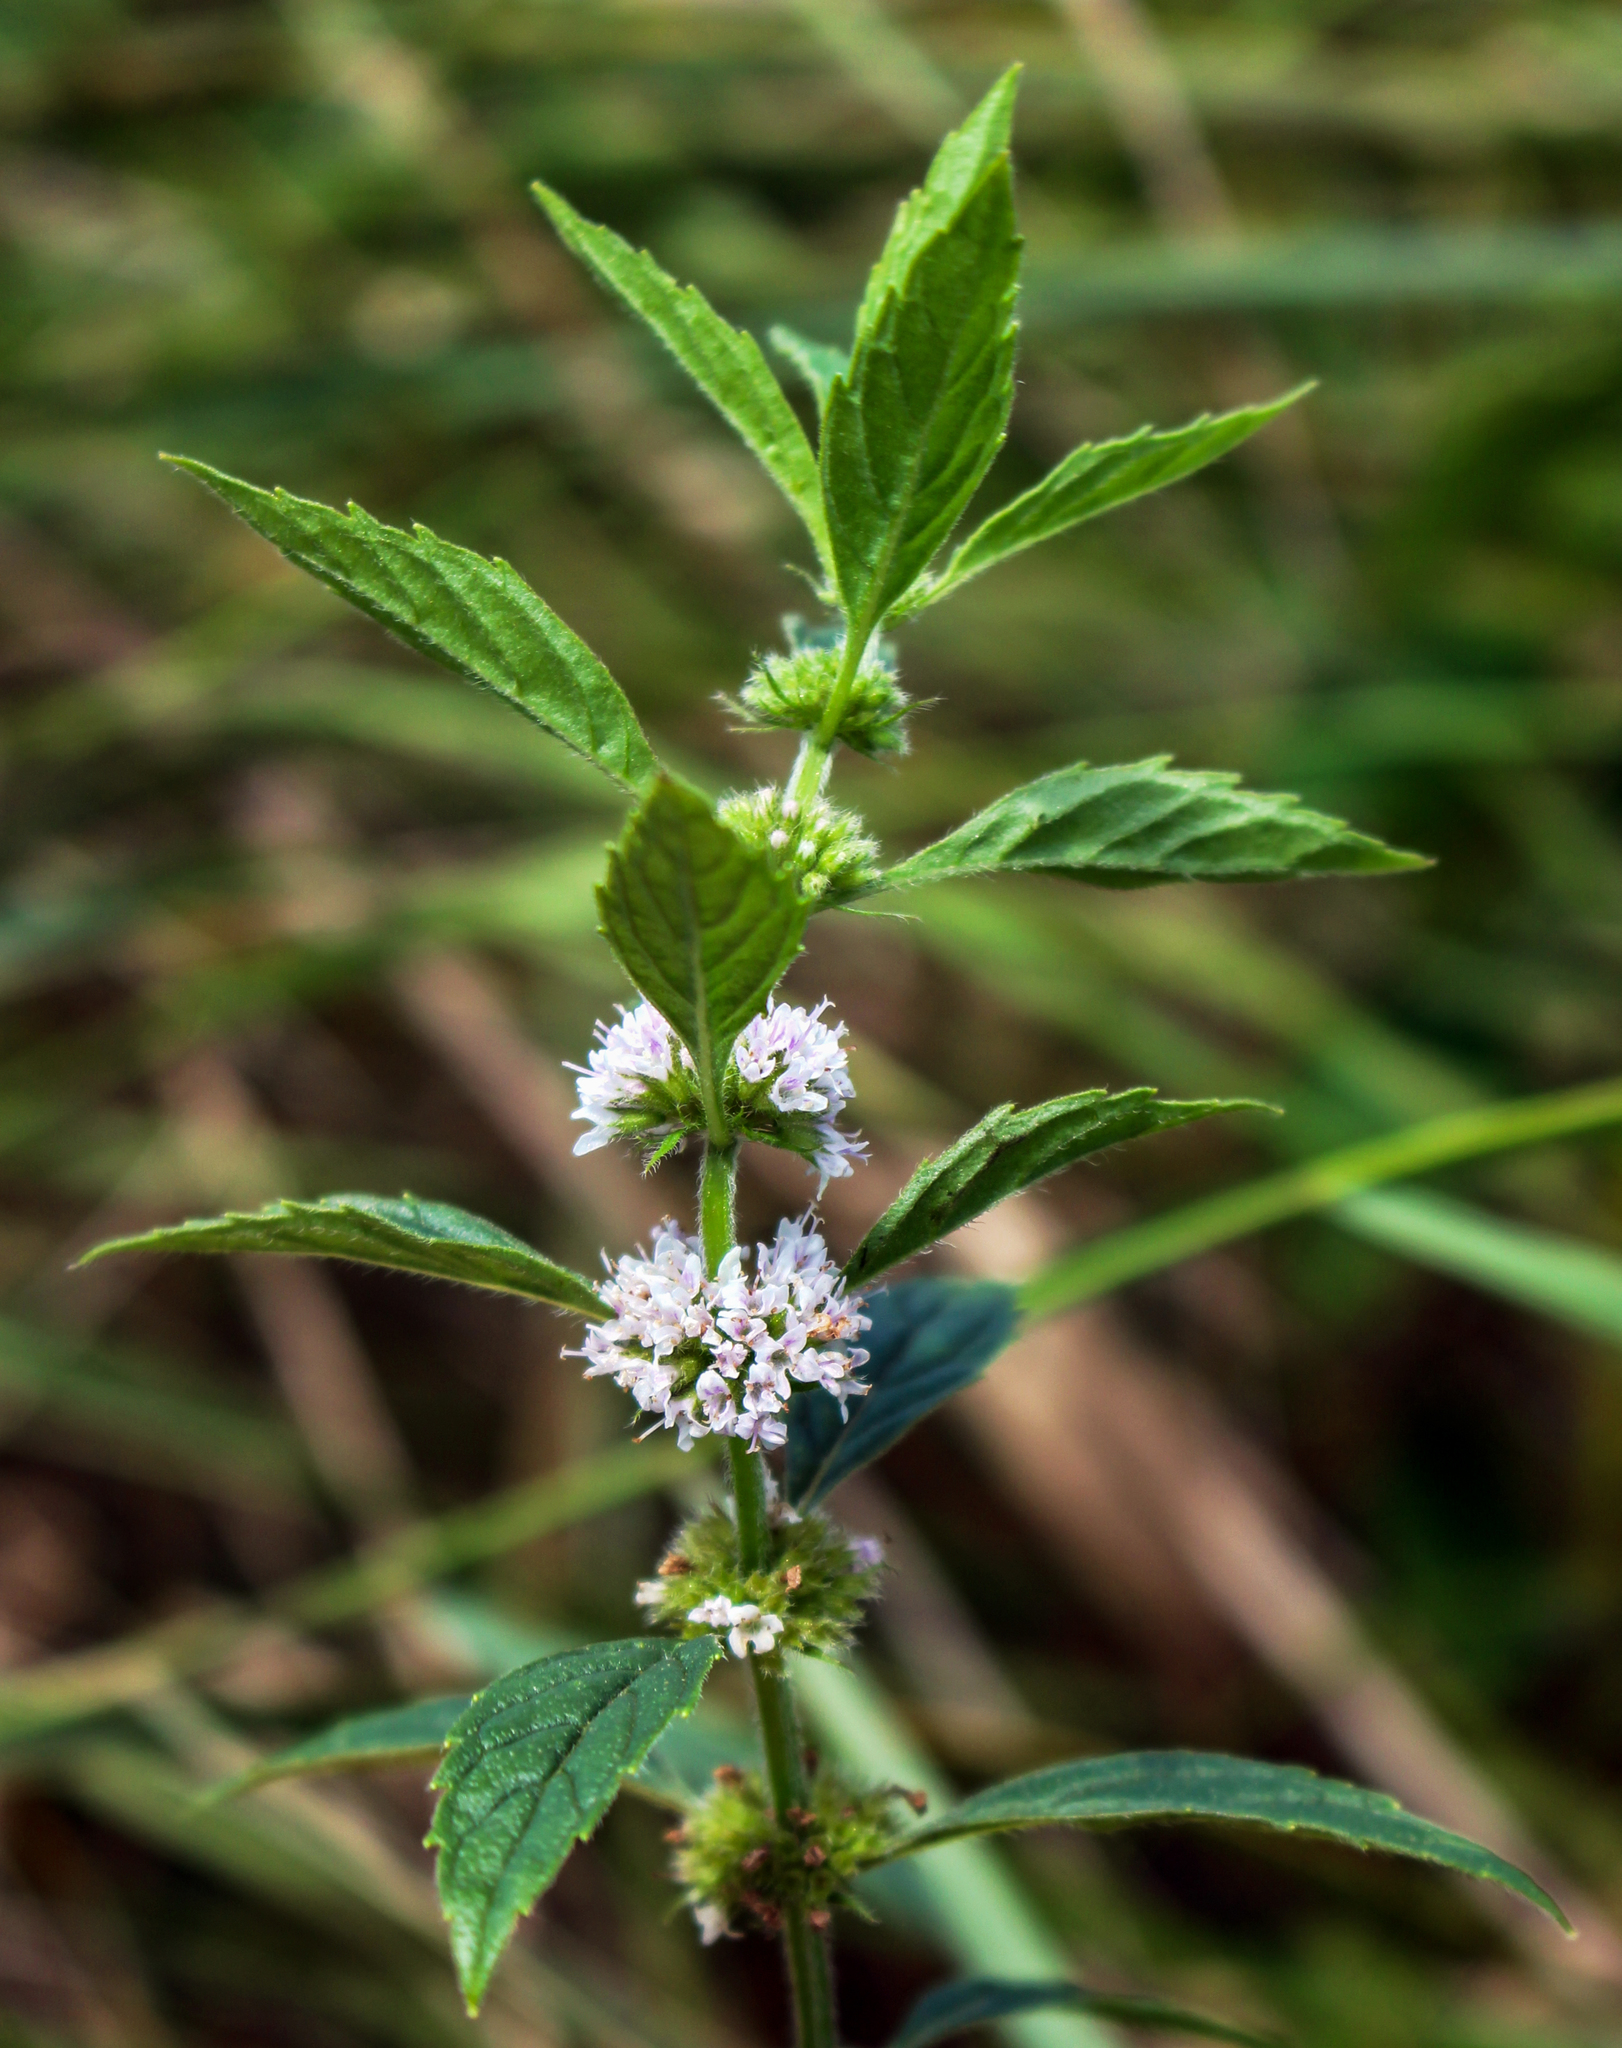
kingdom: Plantae
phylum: Tracheophyta
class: Magnoliopsida
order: Lamiales
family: Lamiaceae
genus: Mentha
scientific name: Mentha arvensis
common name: Corn mint
